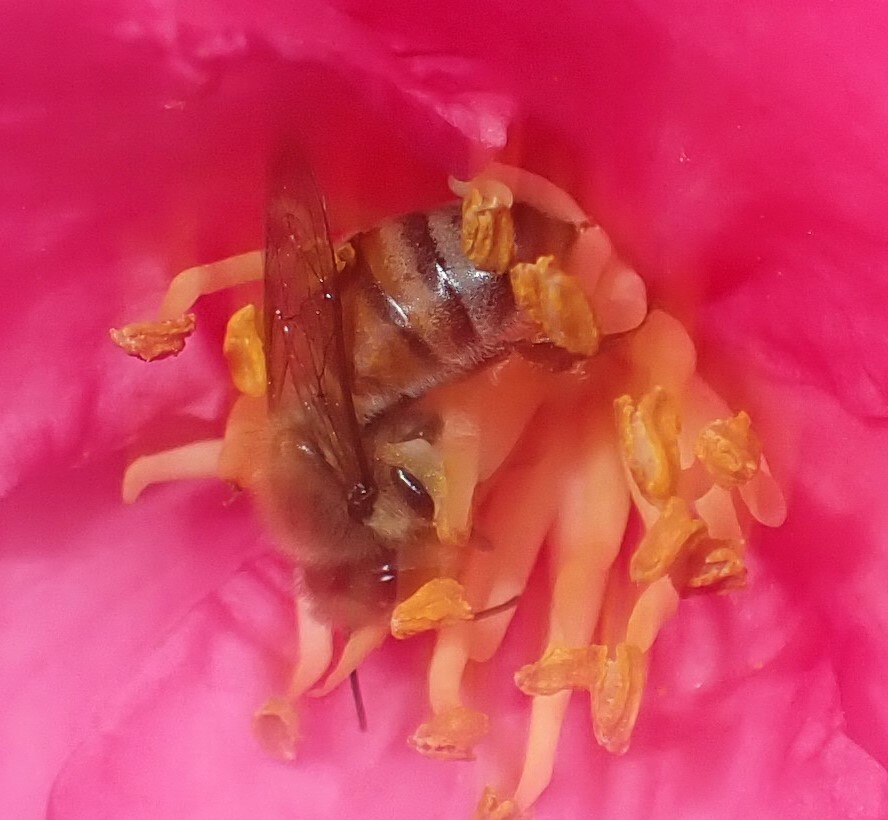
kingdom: Animalia
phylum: Arthropoda
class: Insecta
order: Hymenoptera
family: Apidae
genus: Apis
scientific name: Apis mellifera
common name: Honey bee
